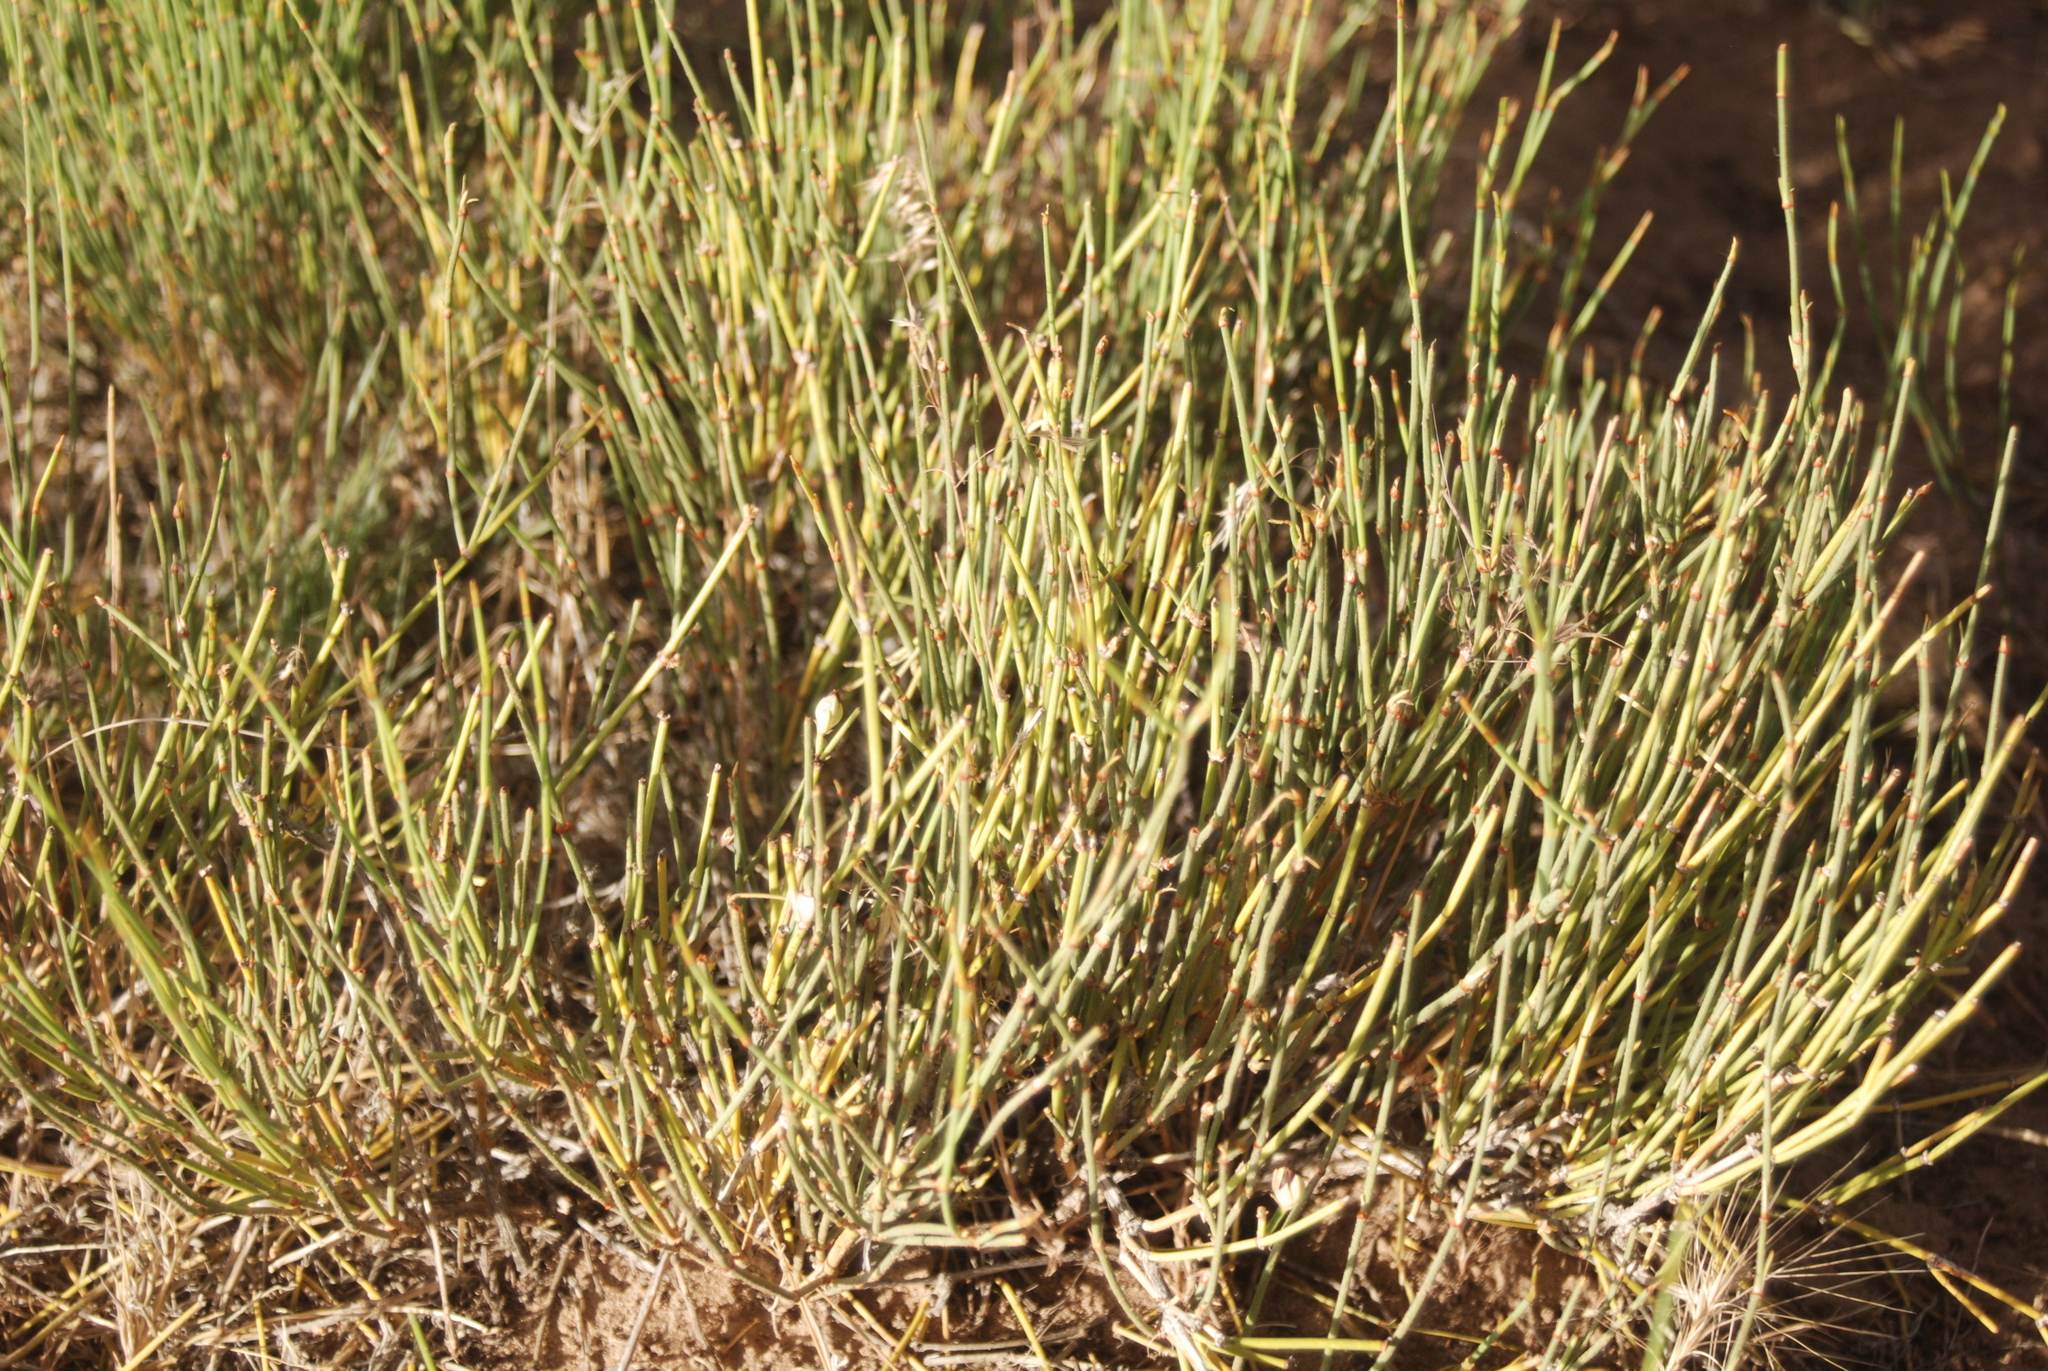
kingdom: Plantae
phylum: Tracheophyta
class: Gnetopsida
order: Ephedrales
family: Ephedraceae
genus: Ephedra
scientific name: Ephedra cutleri
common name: Cutler morning-tea
